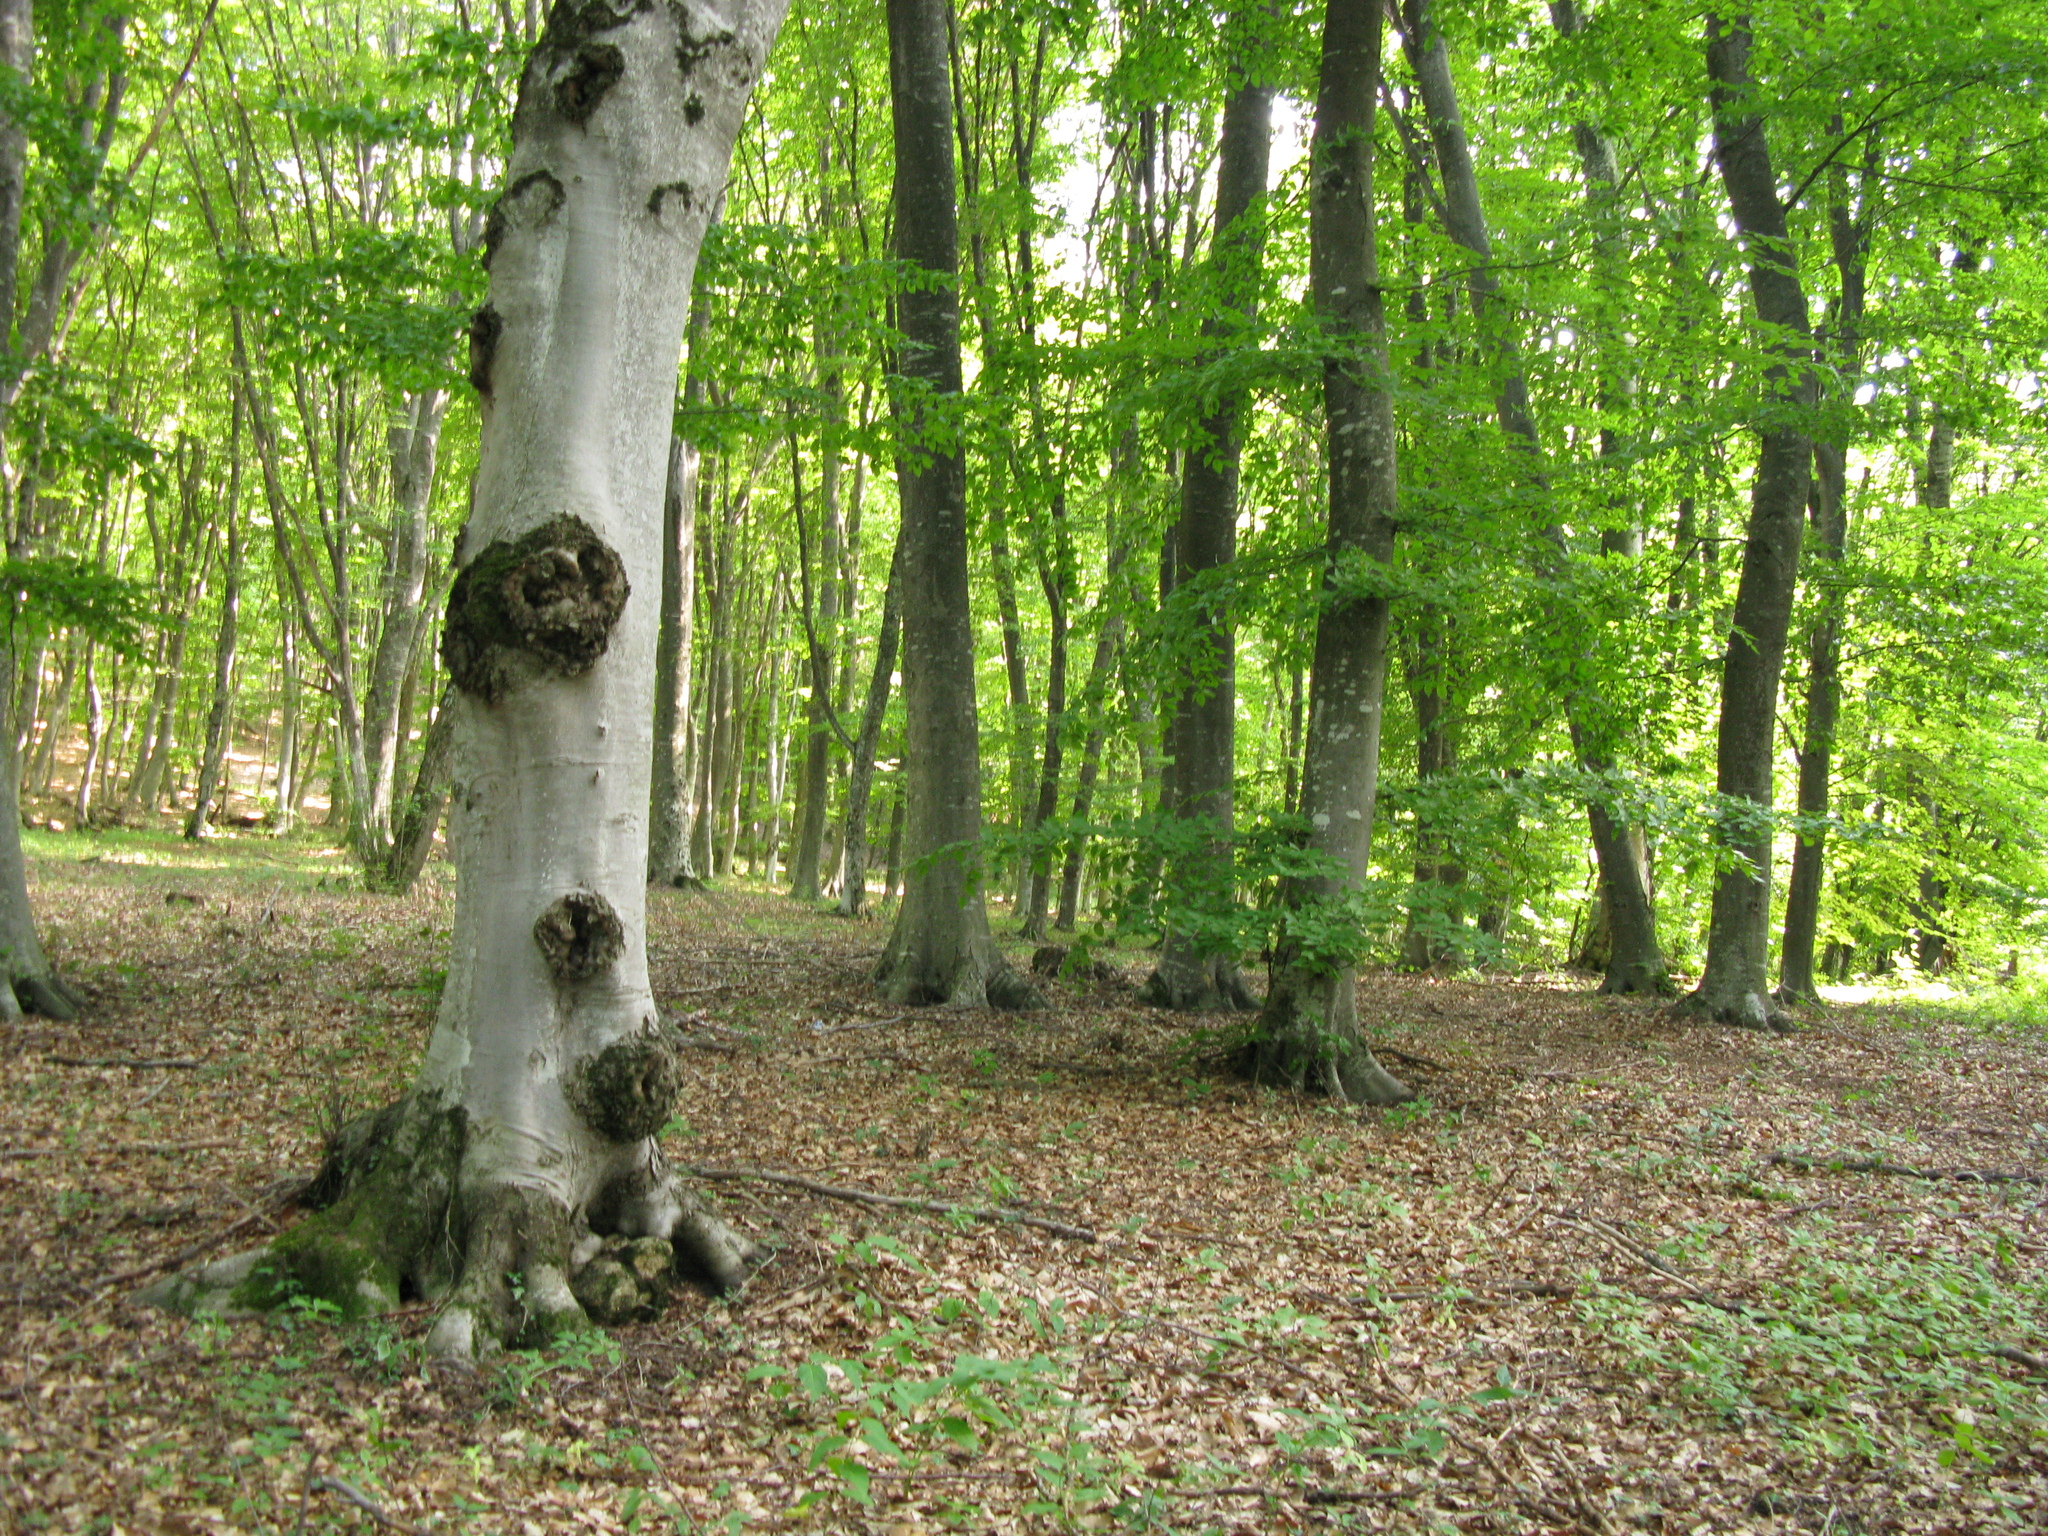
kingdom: Plantae
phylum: Tracheophyta
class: Magnoliopsida
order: Fagales
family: Fagaceae
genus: Fagus
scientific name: Fagus taurica
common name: Crimean beech
